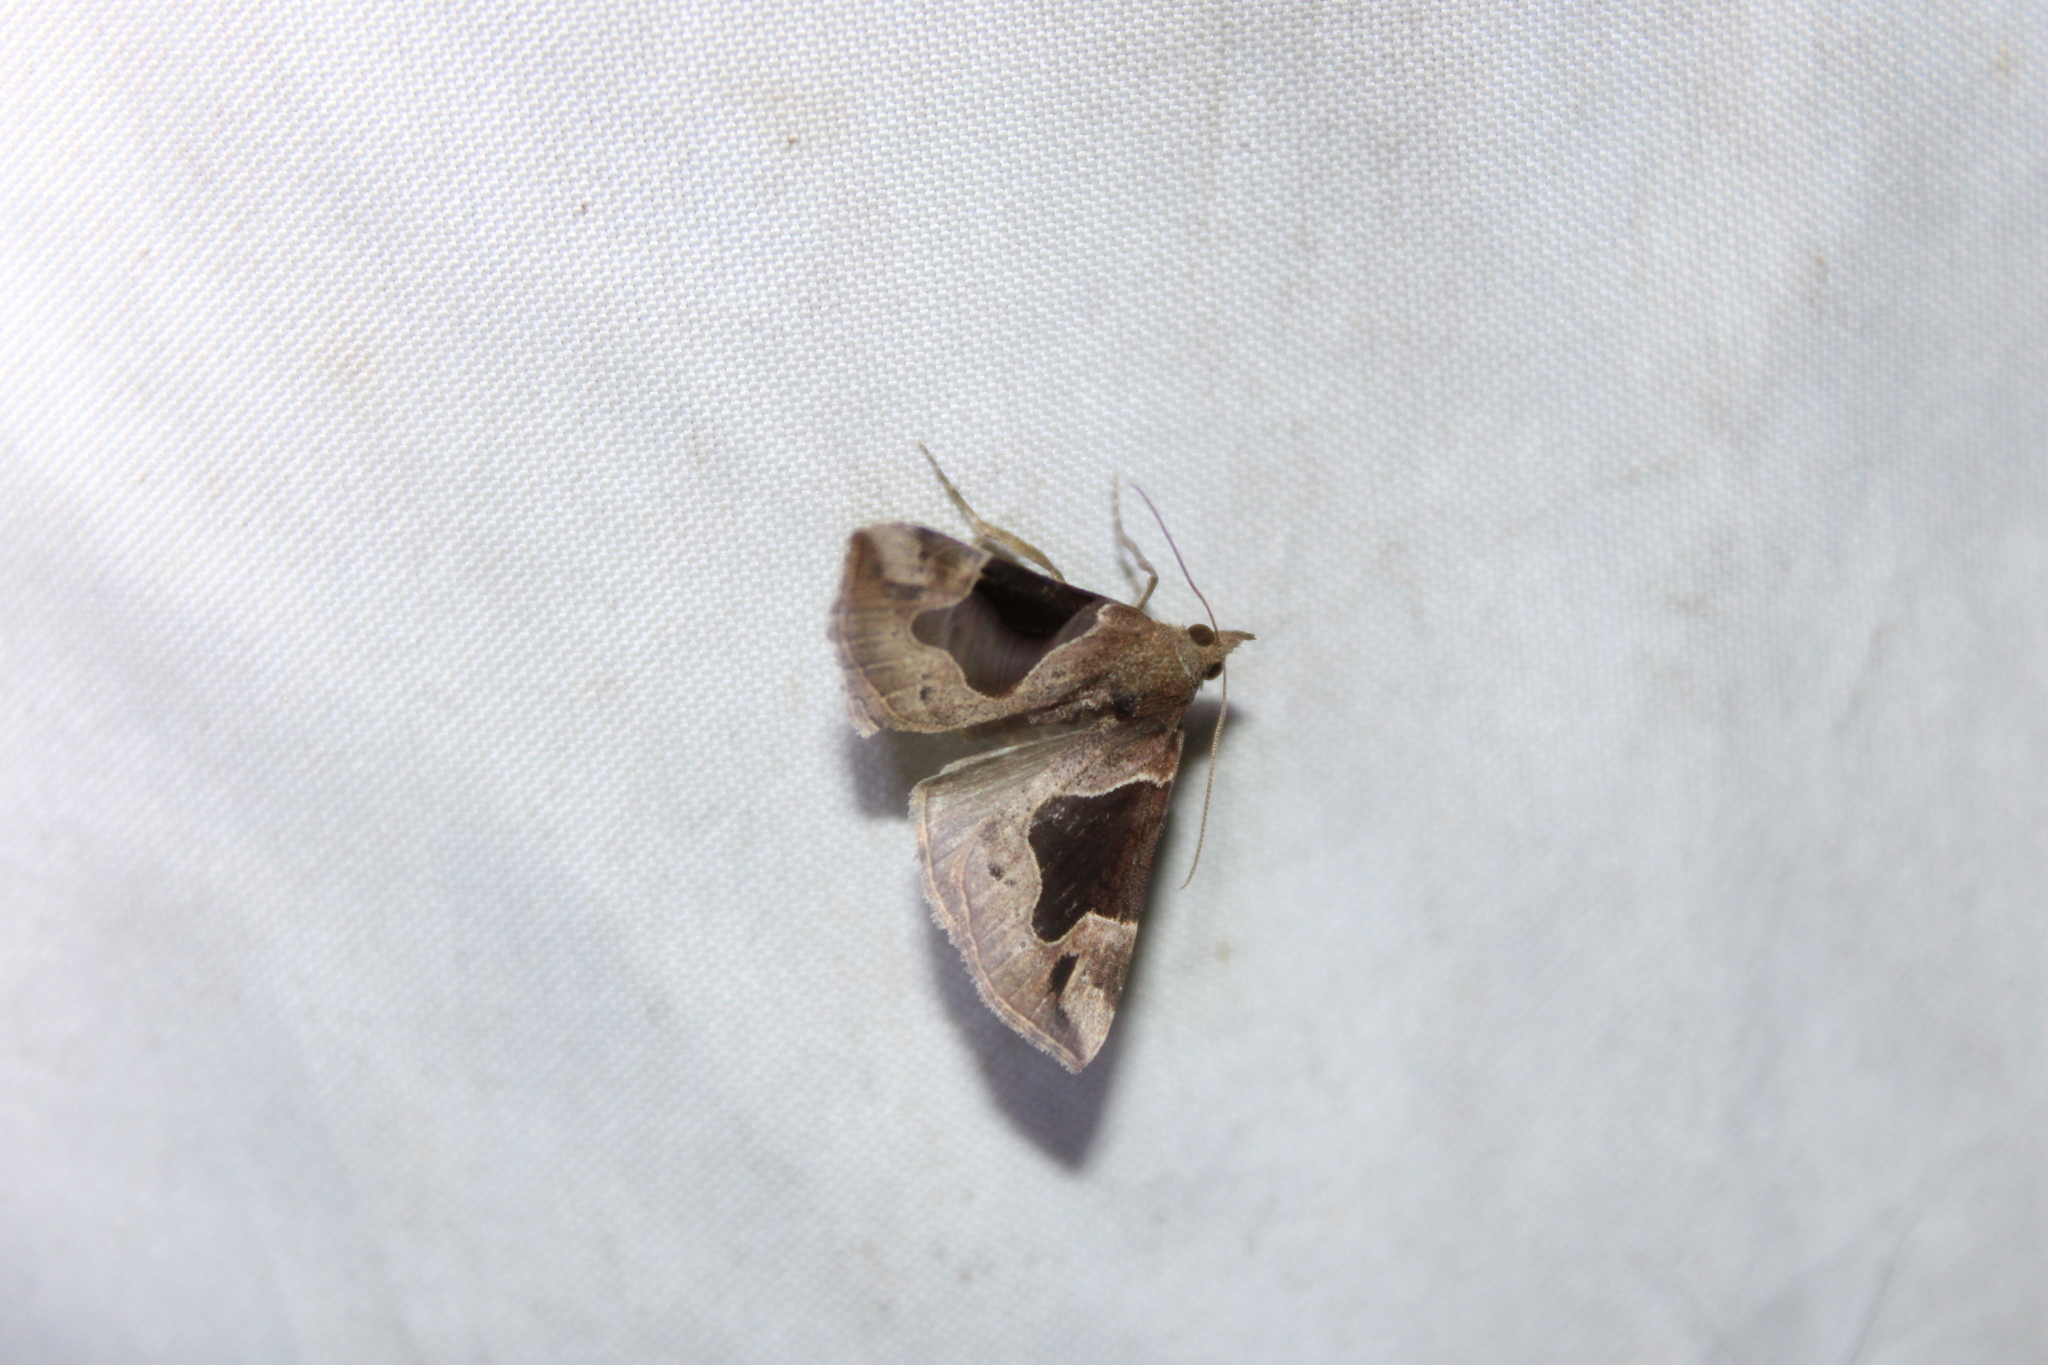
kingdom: Animalia
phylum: Arthropoda
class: Insecta
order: Lepidoptera
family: Erebidae
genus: Hypena
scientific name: Hypena manalis
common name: Flowing-line bomolocha moth
